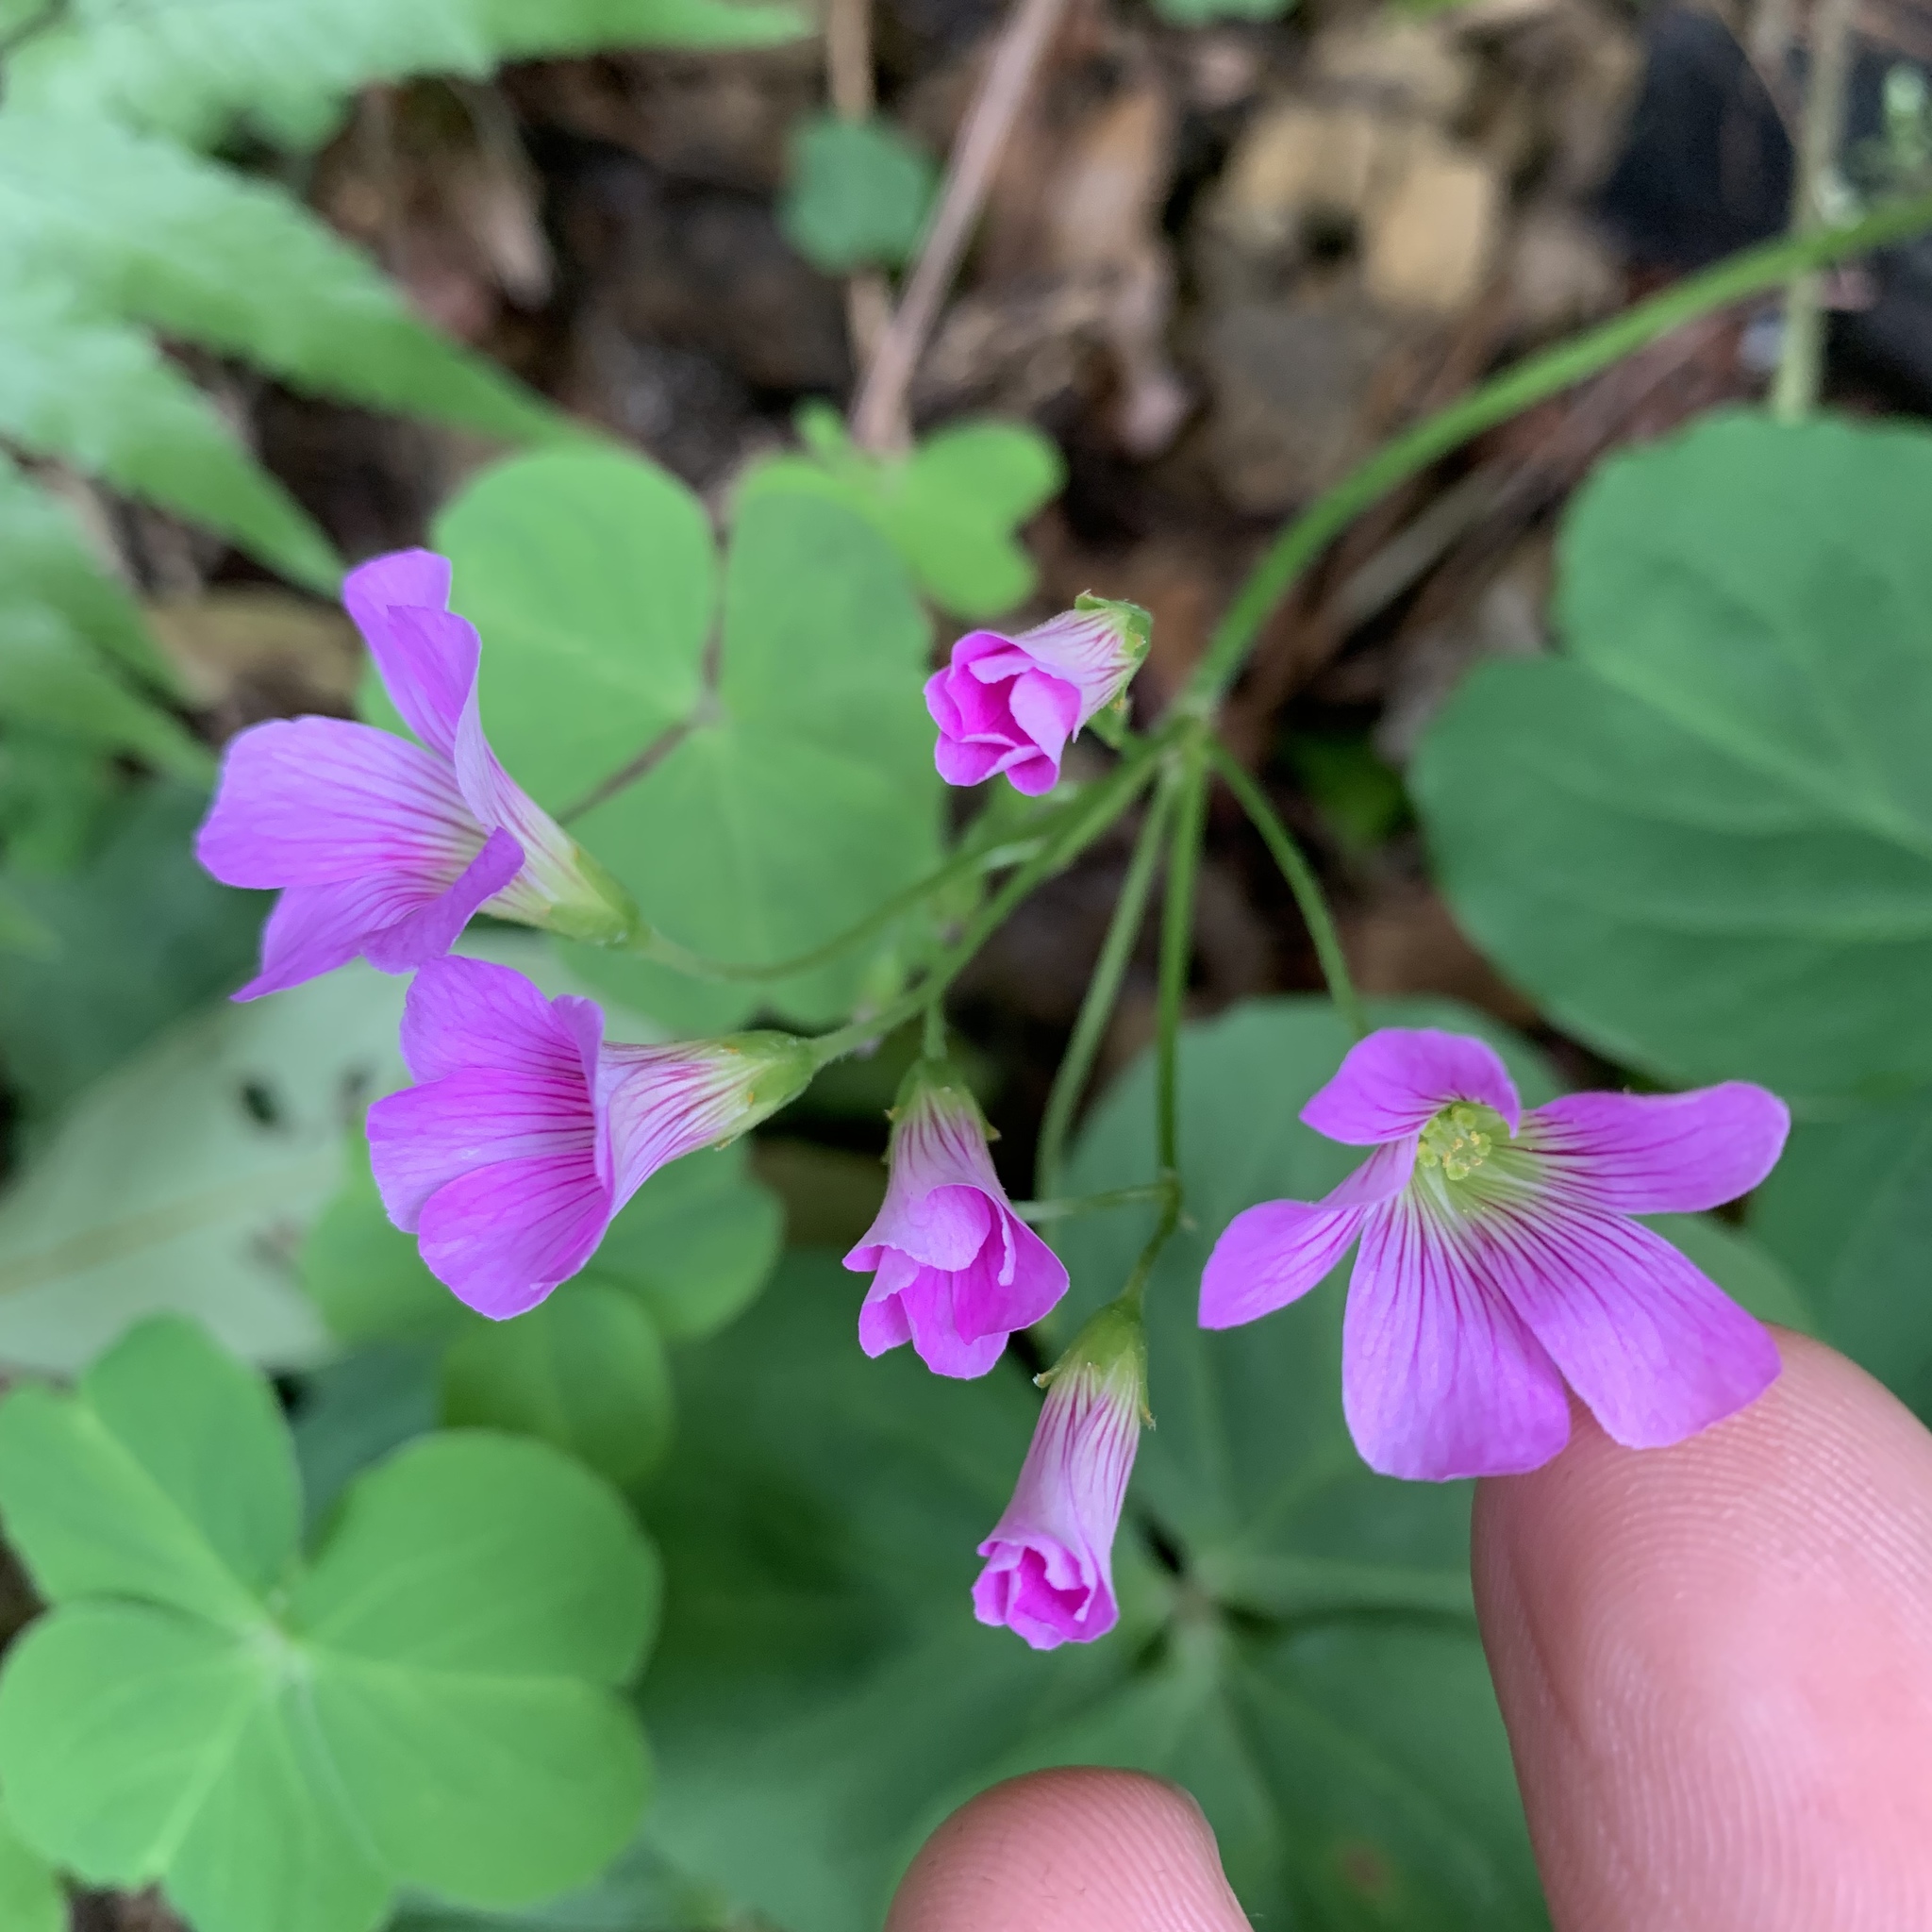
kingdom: Plantae
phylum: Tracheophyta
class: Magnoliopsida
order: Oxalidales
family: Oxalidaceae
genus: Oxalis
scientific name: Oxalis debilis
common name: Large-flowered pink-sorrel
